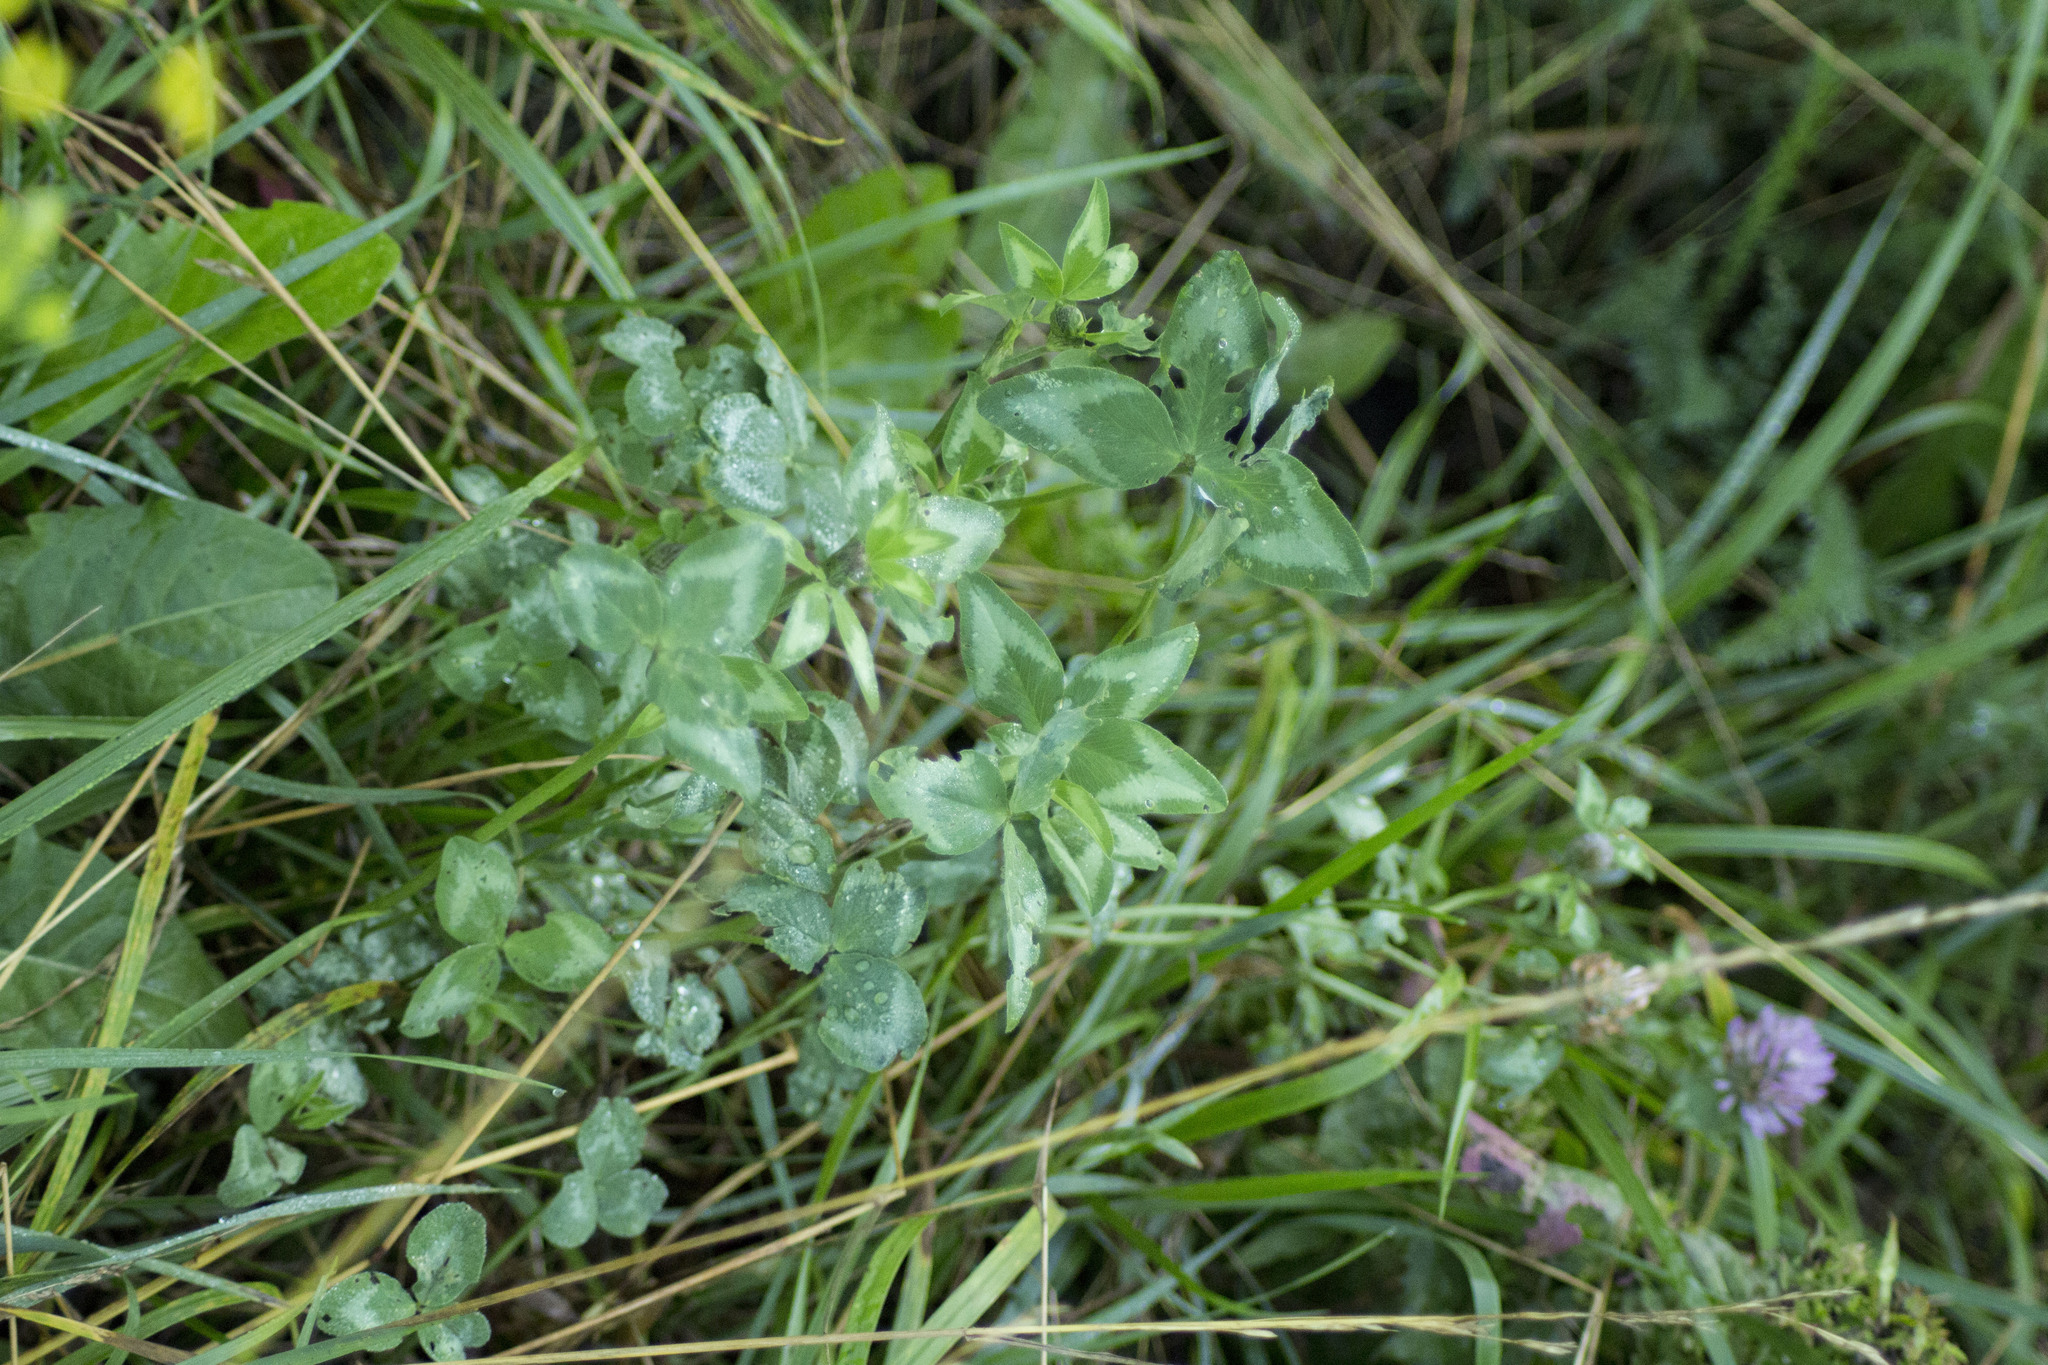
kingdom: Plantae
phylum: Tracheophyta
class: Magnoliopsida
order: Fabales
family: Fabaceae
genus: Trifolium
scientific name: Trifolium pratense
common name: Red clover
